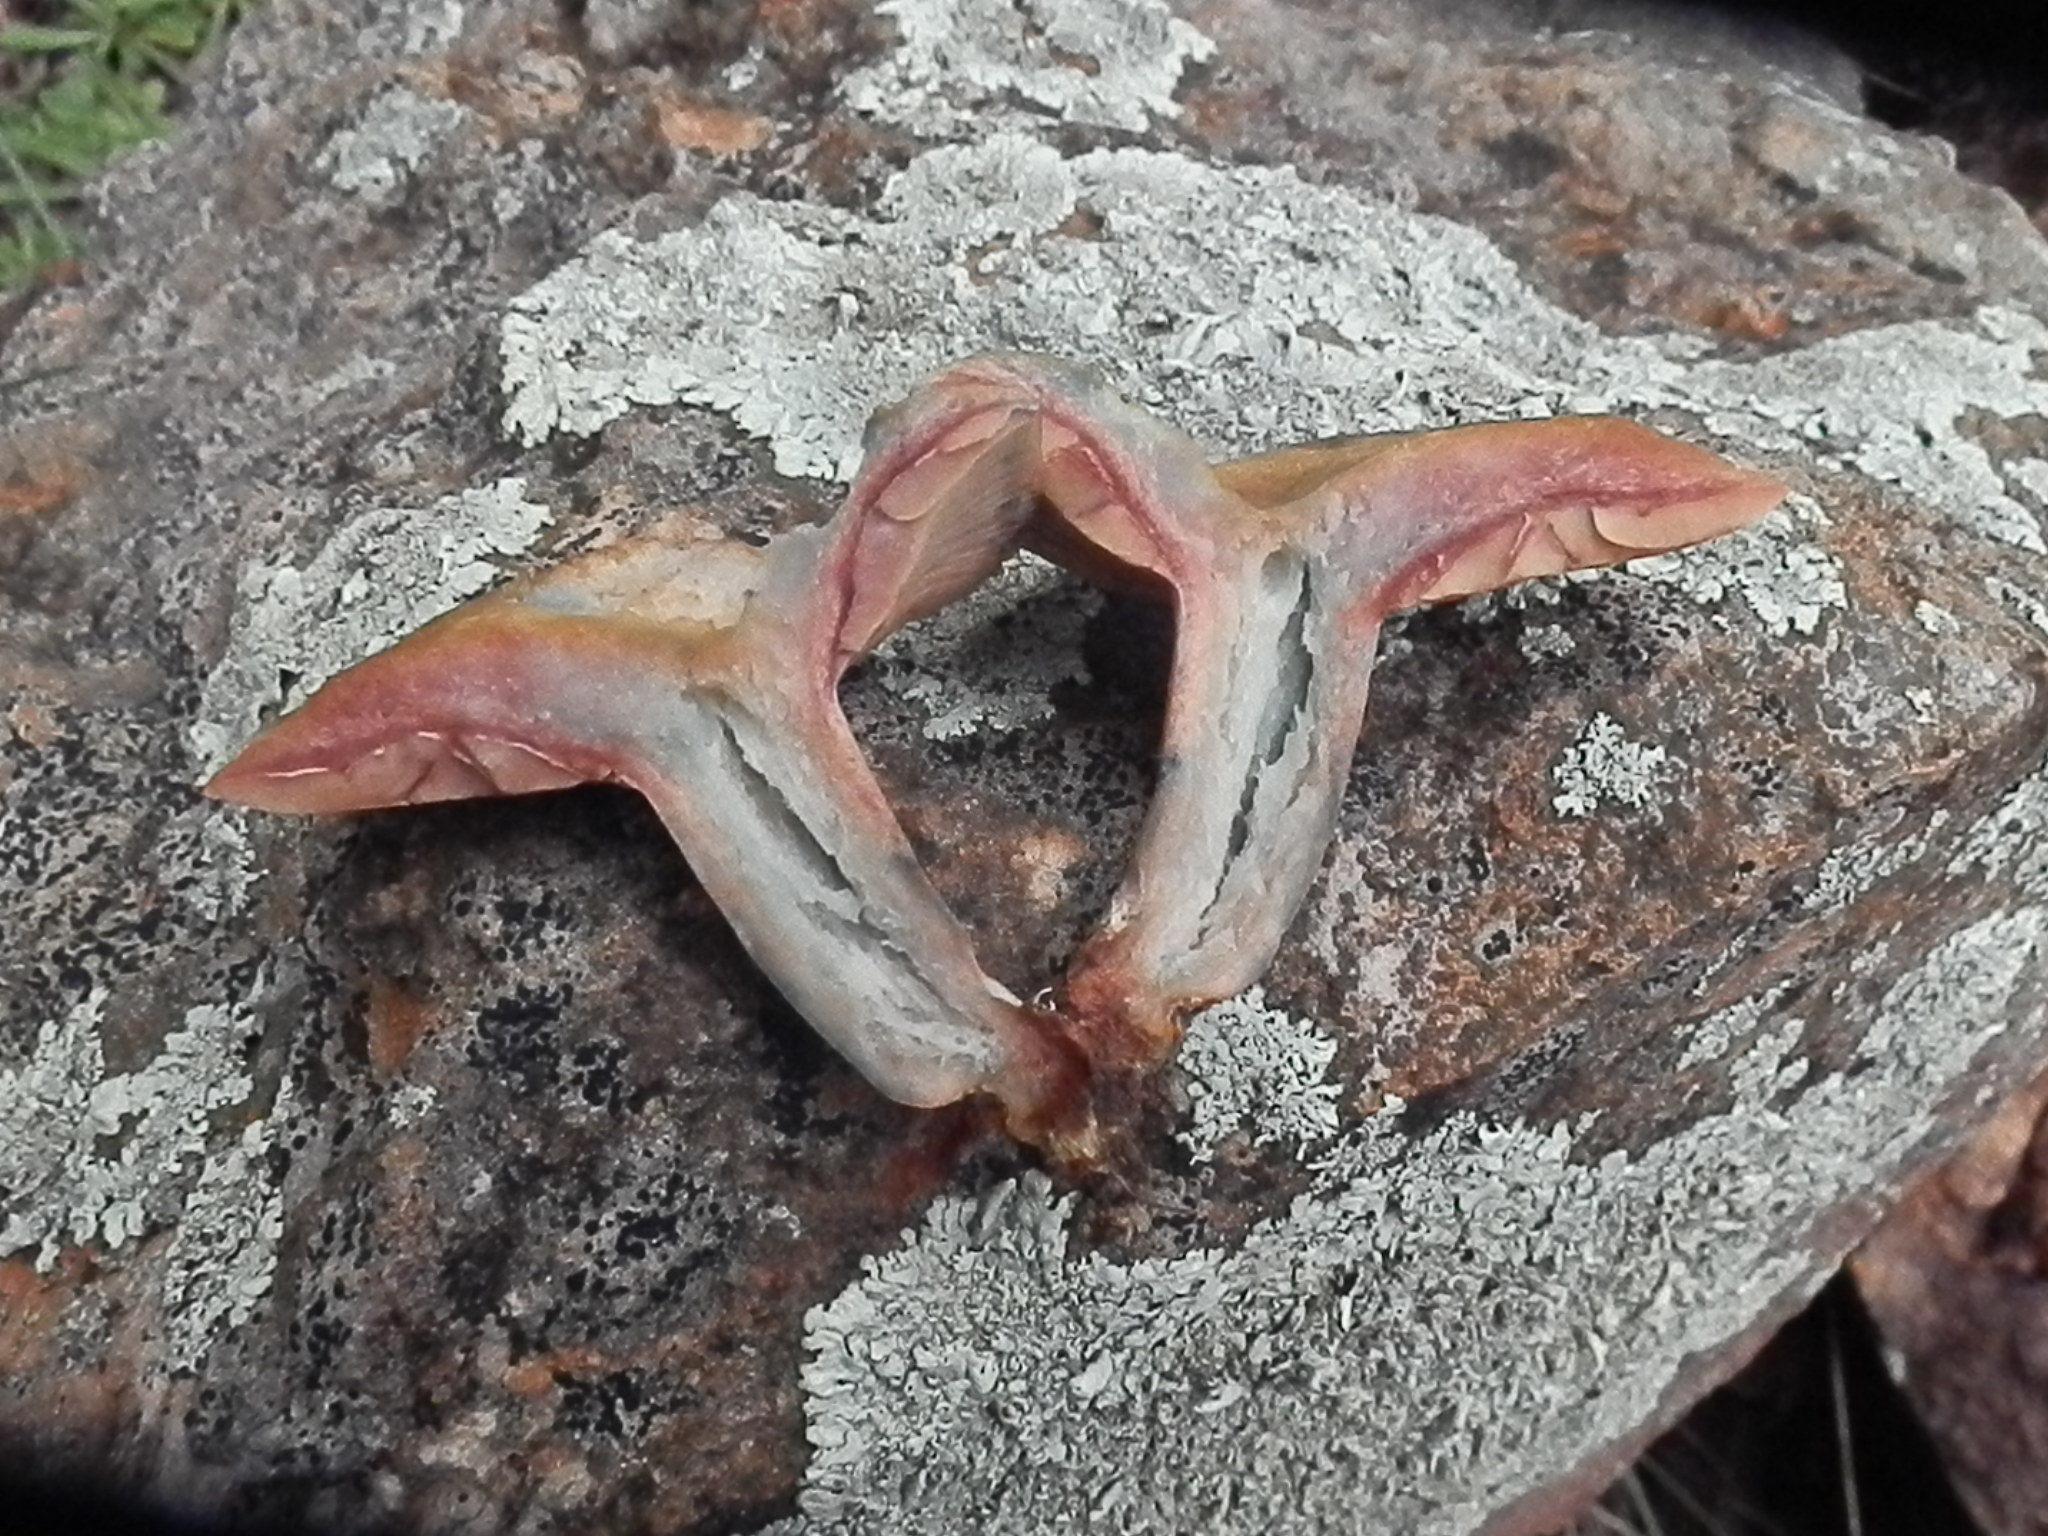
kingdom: Fungi
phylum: Basidiomycota
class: Agaricomycetes
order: Russulales
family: Russulaceae
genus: Lactarius
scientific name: Lactarius rubrilacteus
